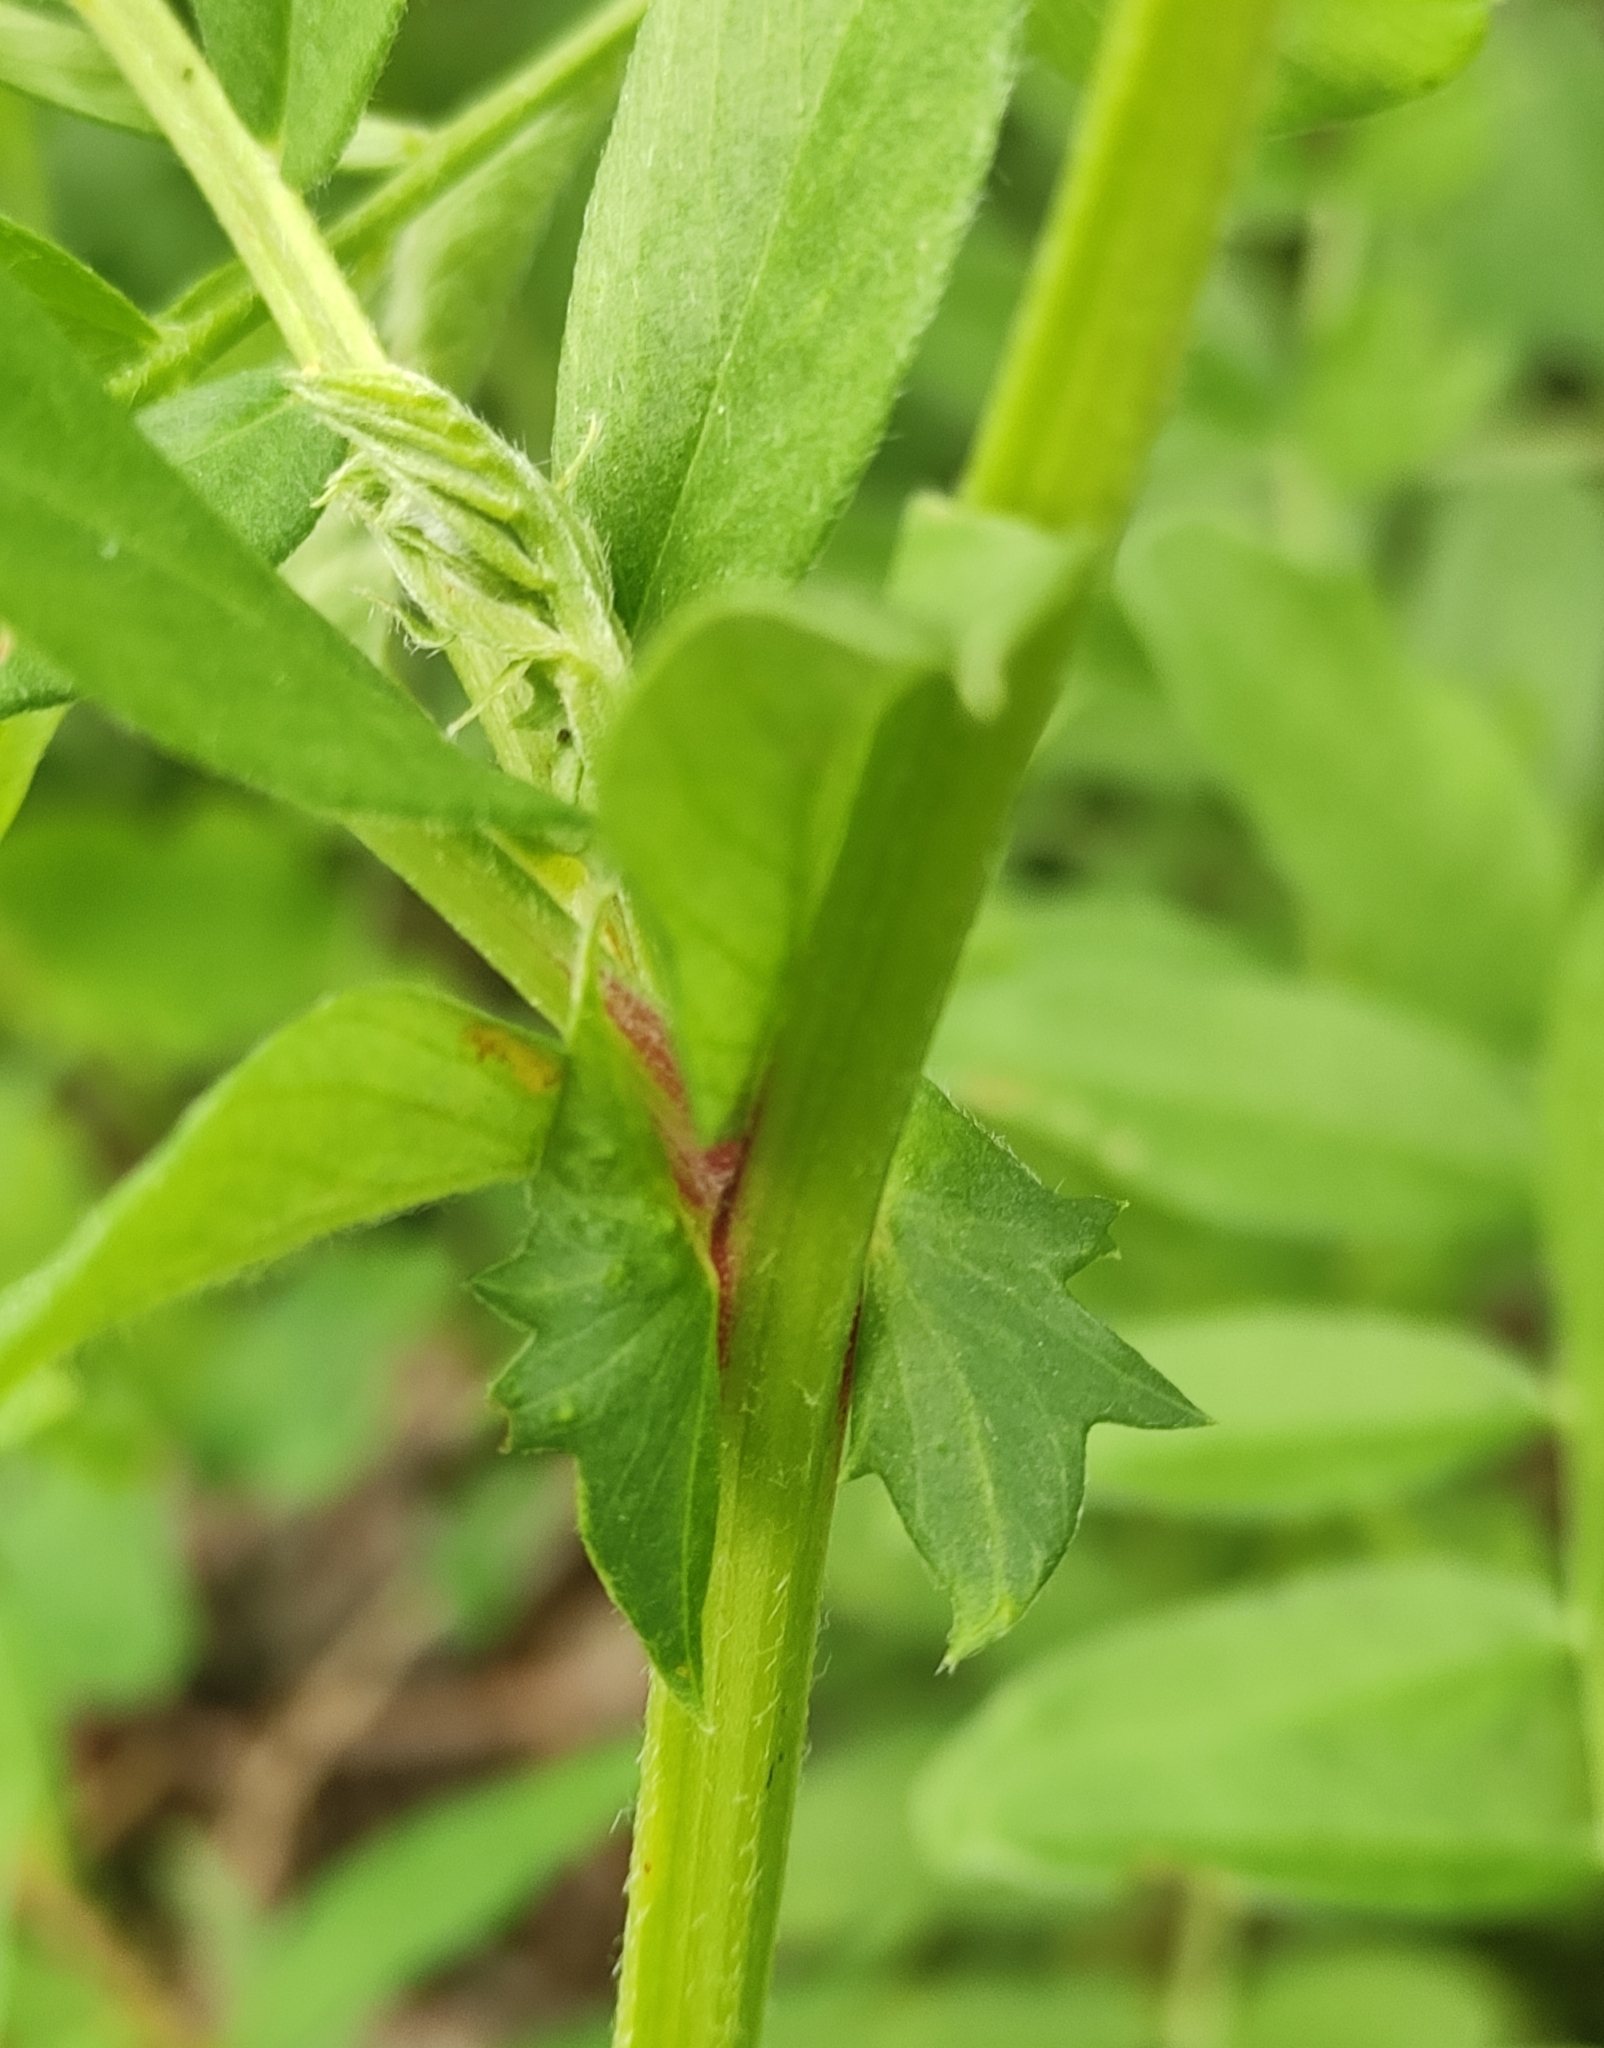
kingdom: Plantae
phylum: Tracheophyta
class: Magnoliopsida
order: Fabales
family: Fabaceae
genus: Vicia
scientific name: Vicia amoena
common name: Cheder ebs
